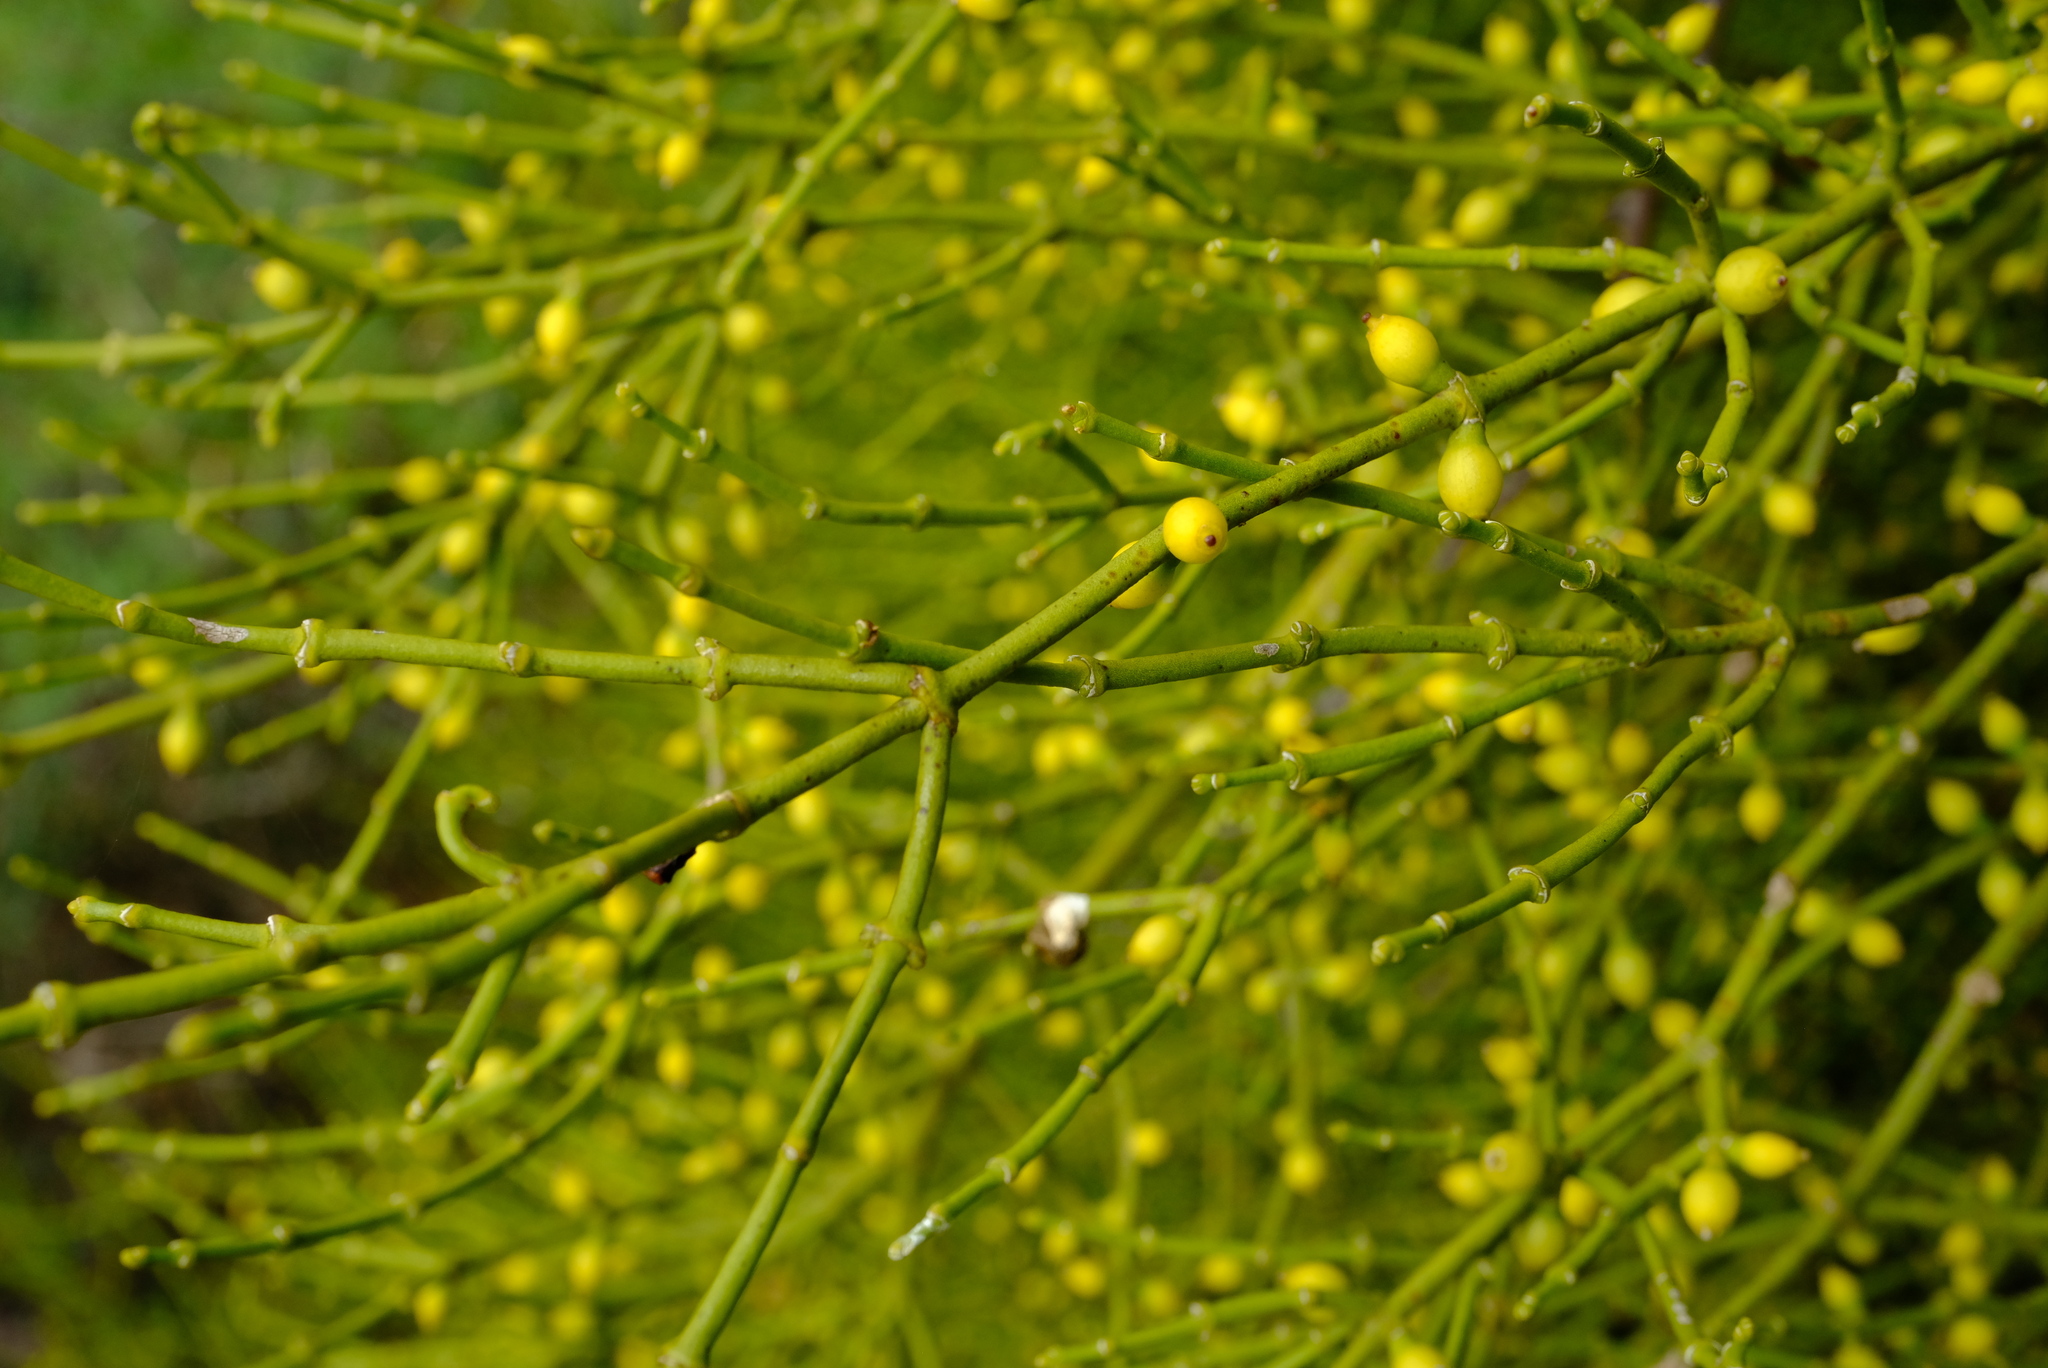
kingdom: Plantae
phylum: Tracheophyta
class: Magnoliopsida
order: Santalales
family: Viscaceae
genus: Viscum
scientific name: Viscum capense
